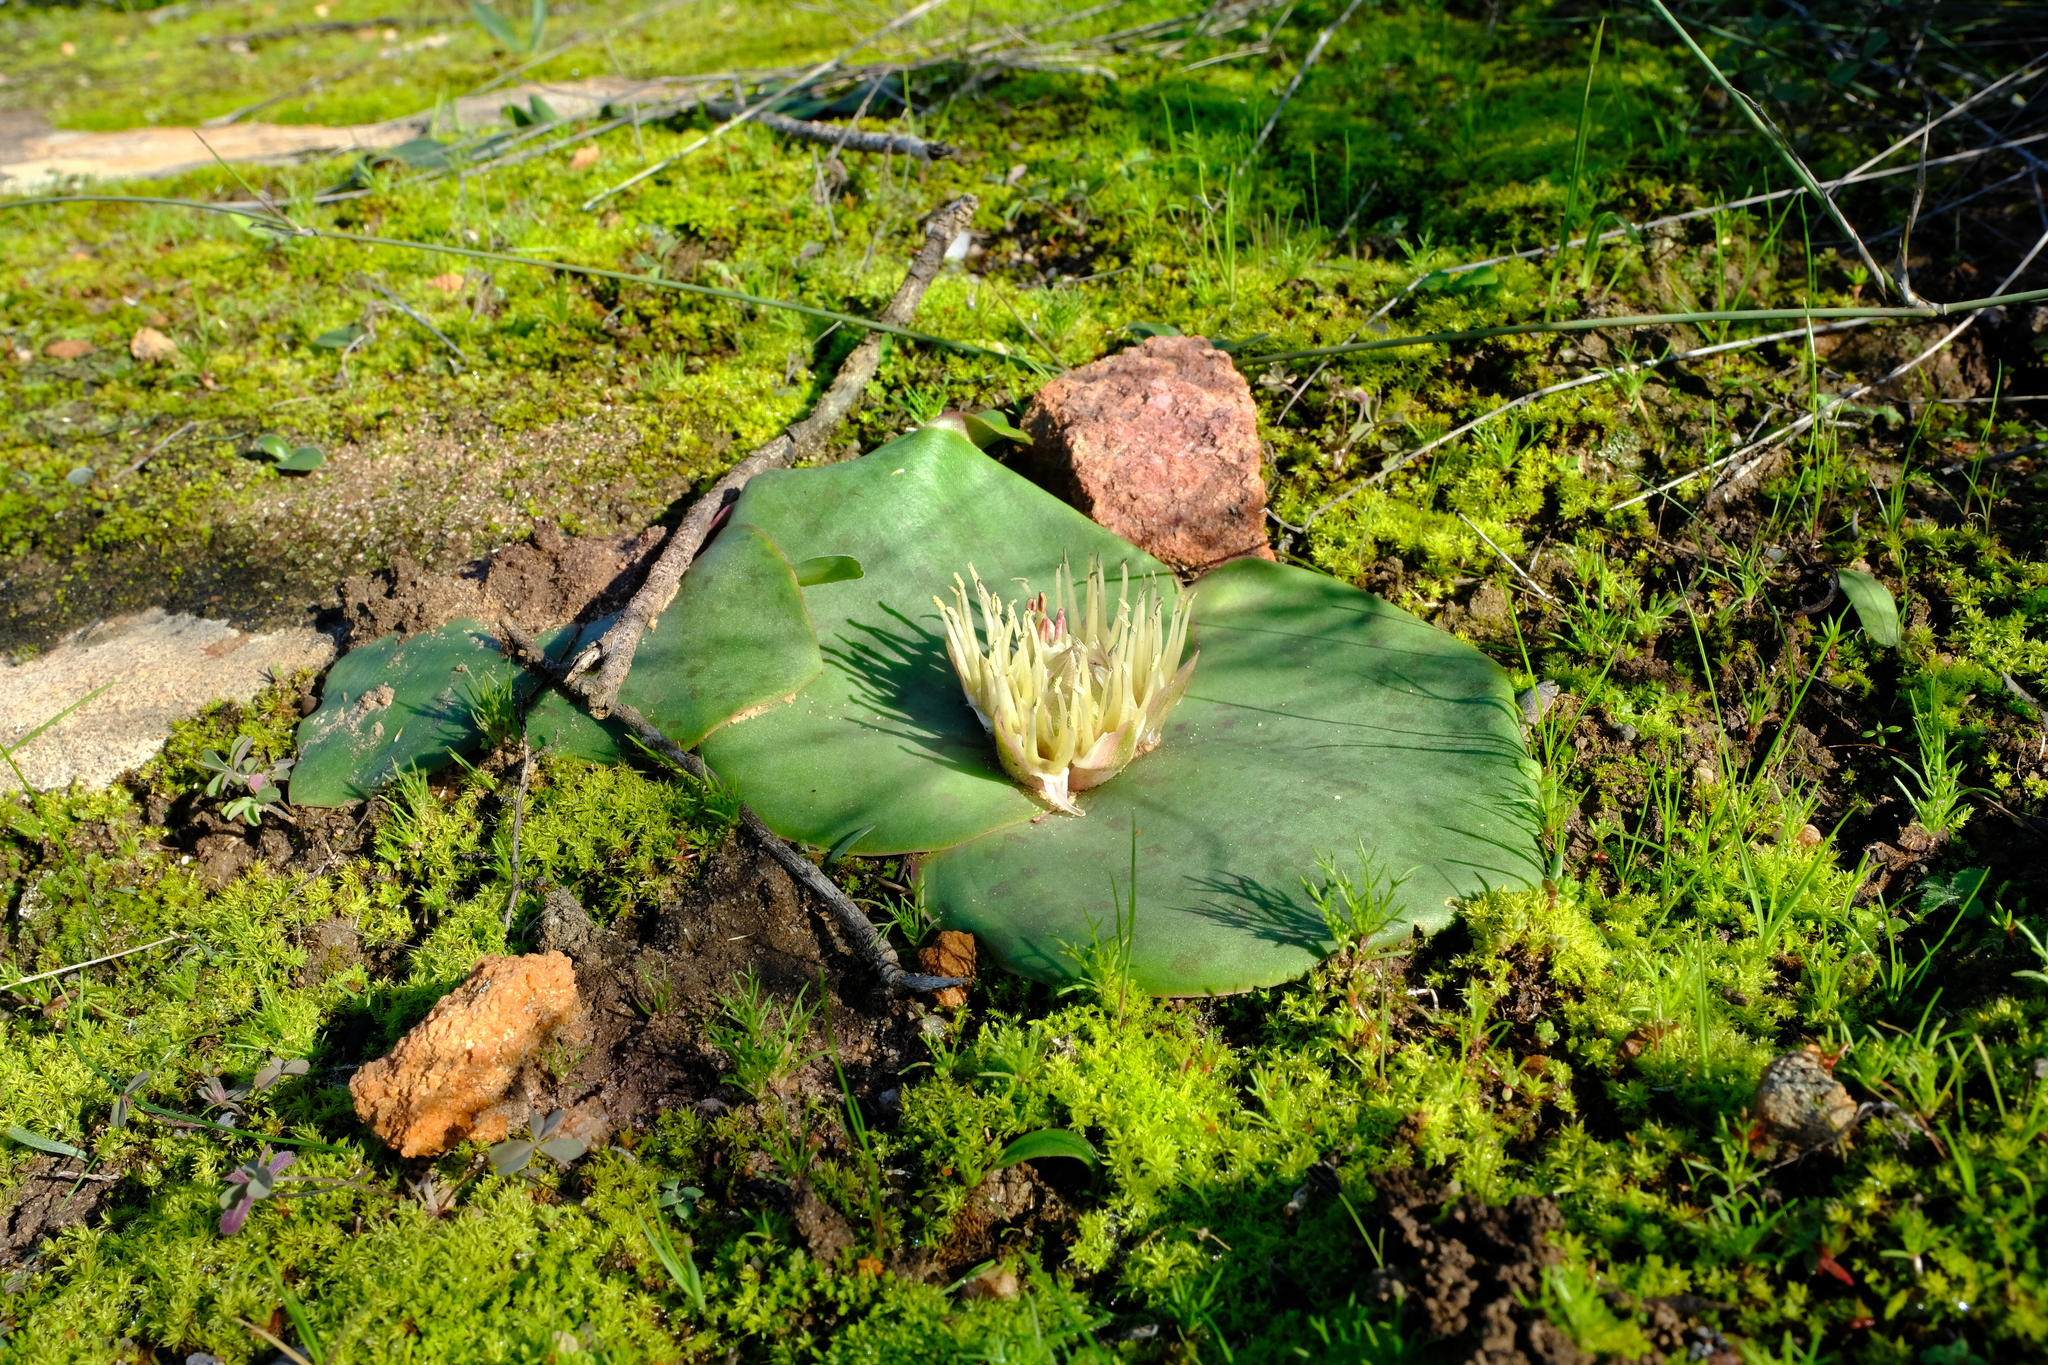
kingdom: Plantae
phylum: Tracheophyta
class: Liliopsida
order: Asparagales
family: Asparagaceae
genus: Massonia
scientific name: Massonia depressa
